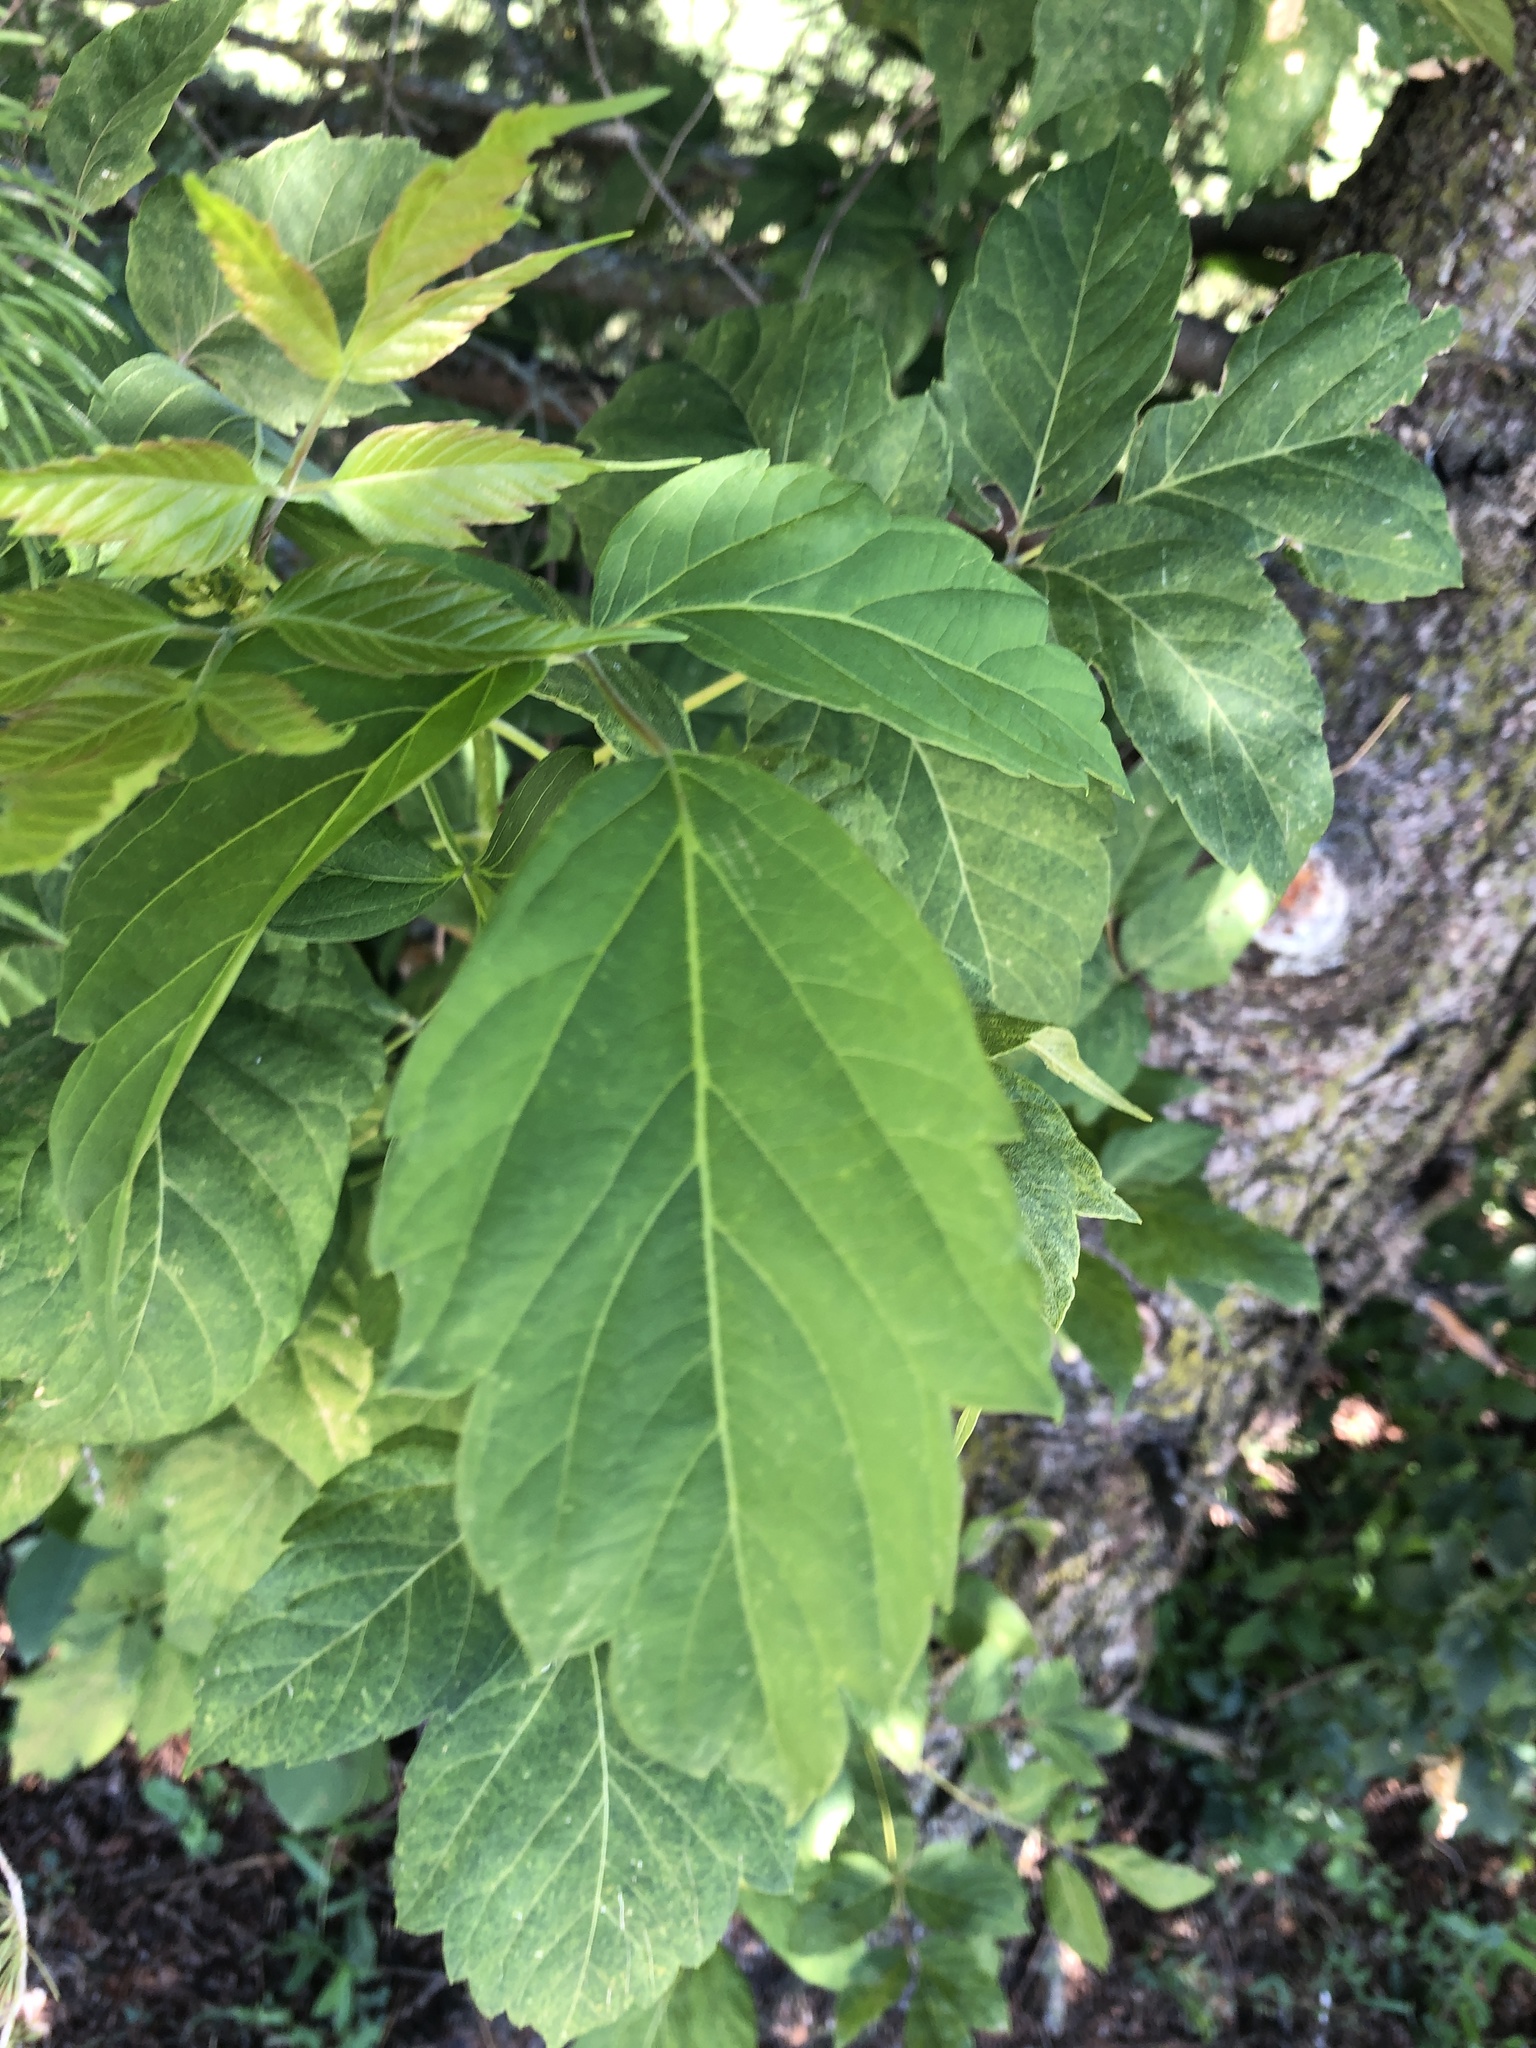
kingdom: Plantae
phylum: Tracheophyta
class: Magnoliopsida
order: Sapindales
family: Sapindaceae
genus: Acer
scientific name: Acer negundo
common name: Ashleaf maple
